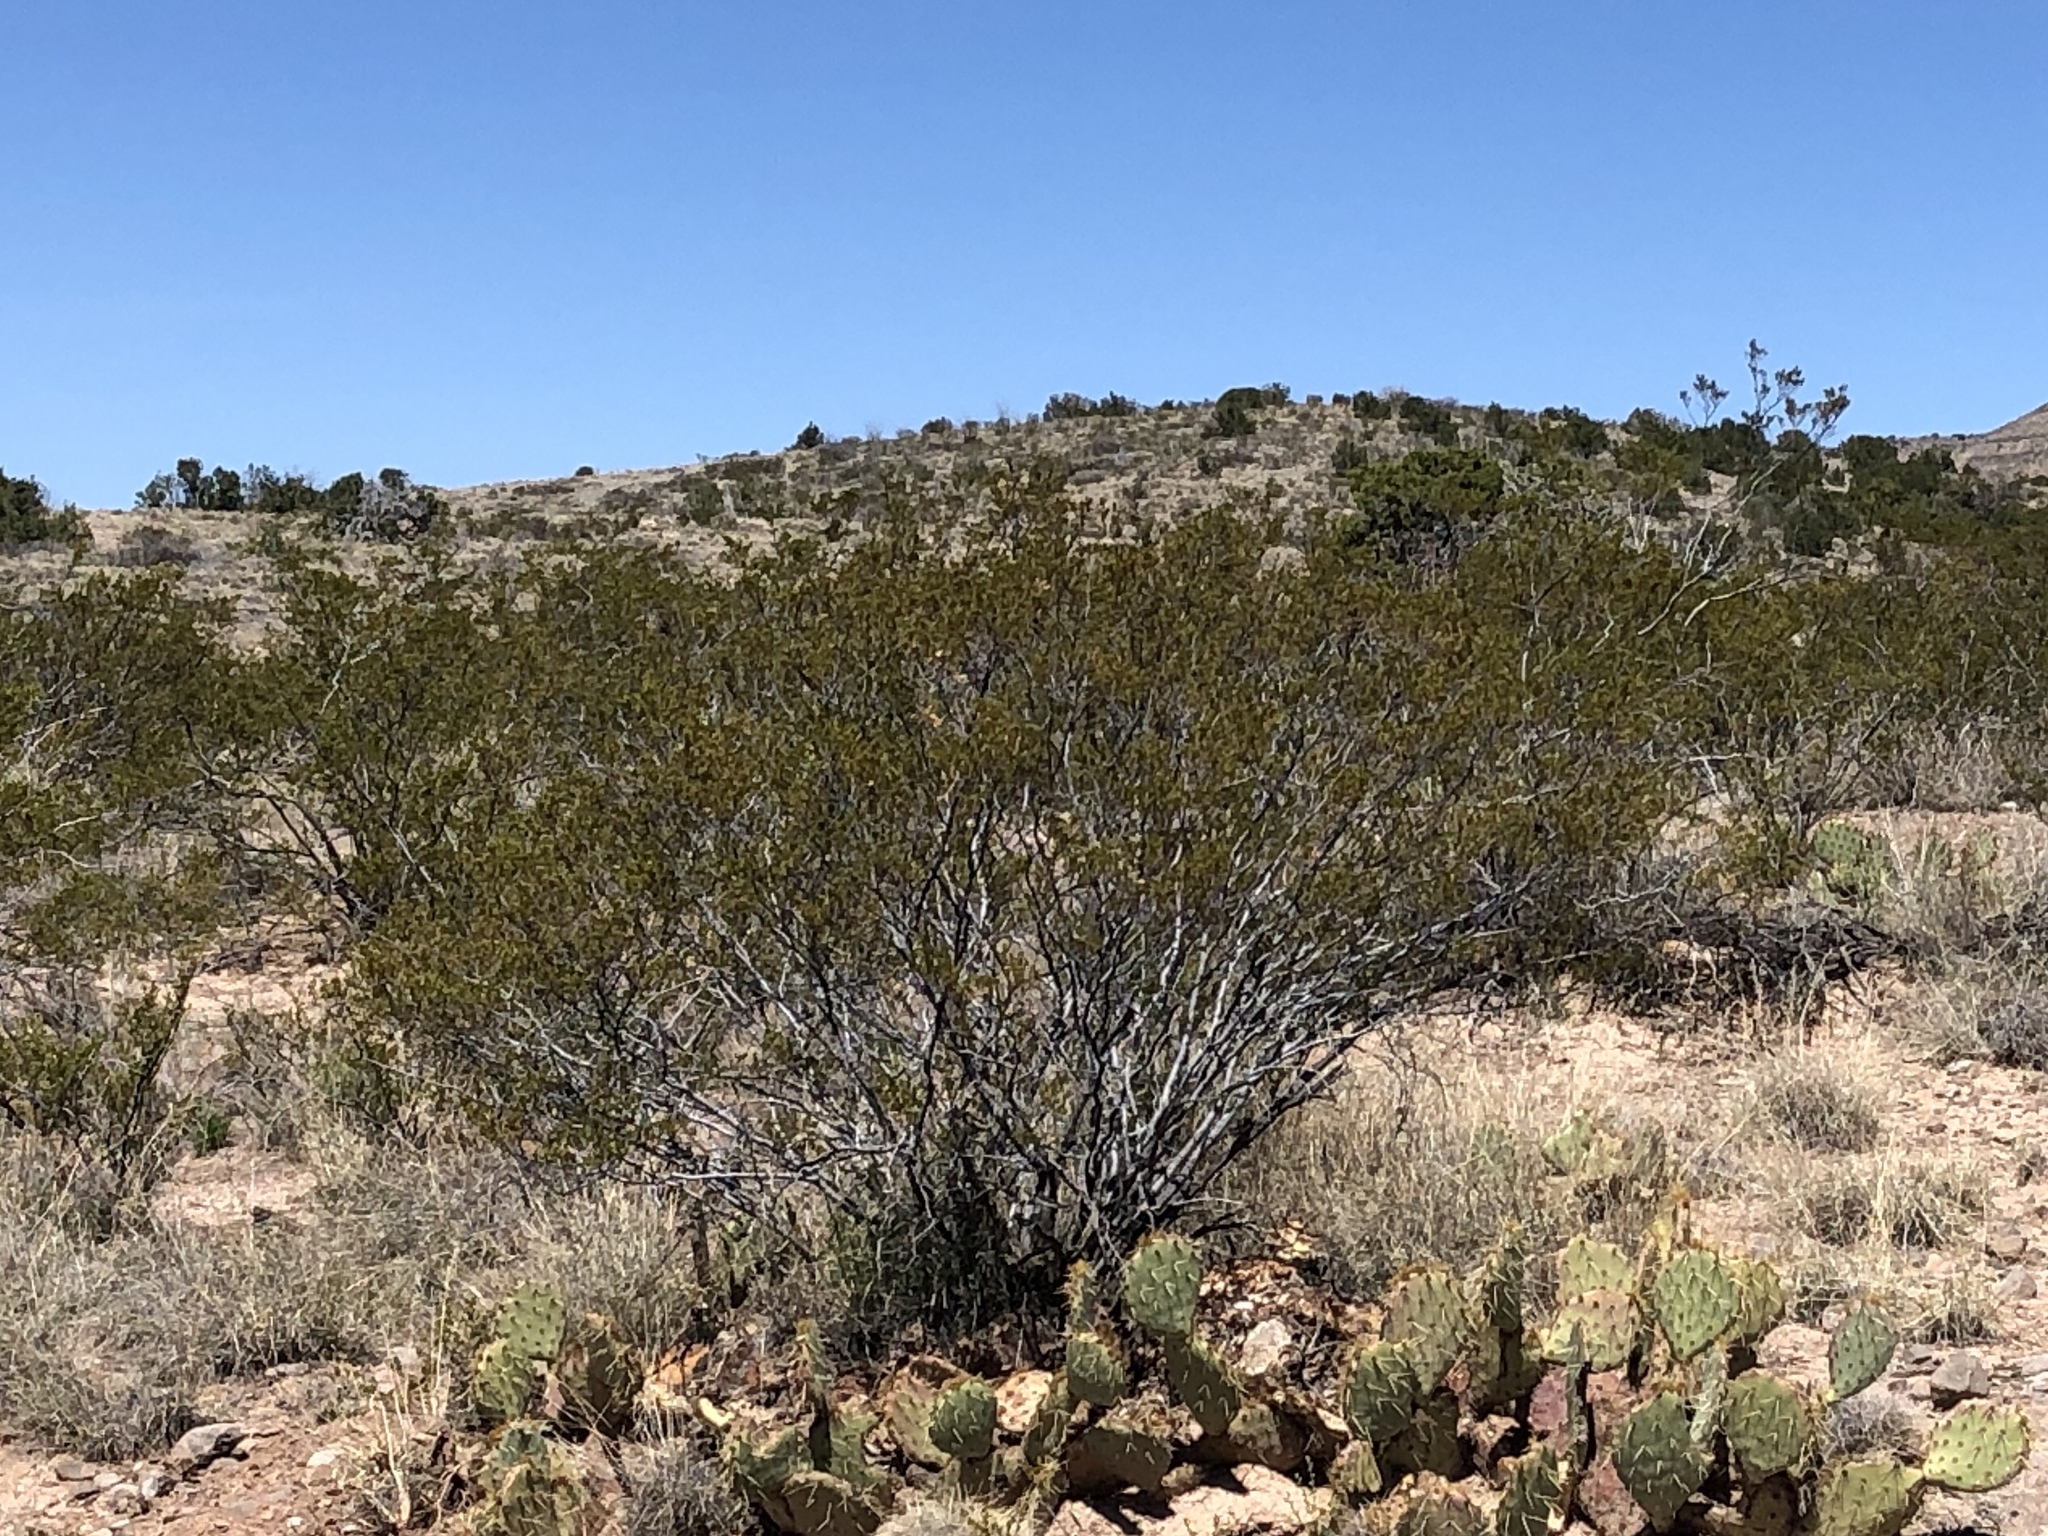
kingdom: Plantae
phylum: Tracheophyta
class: Magnoliopsida
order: Zygophyllales
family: Zygophyllaceae
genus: Larrea
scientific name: Larrea tridentata
